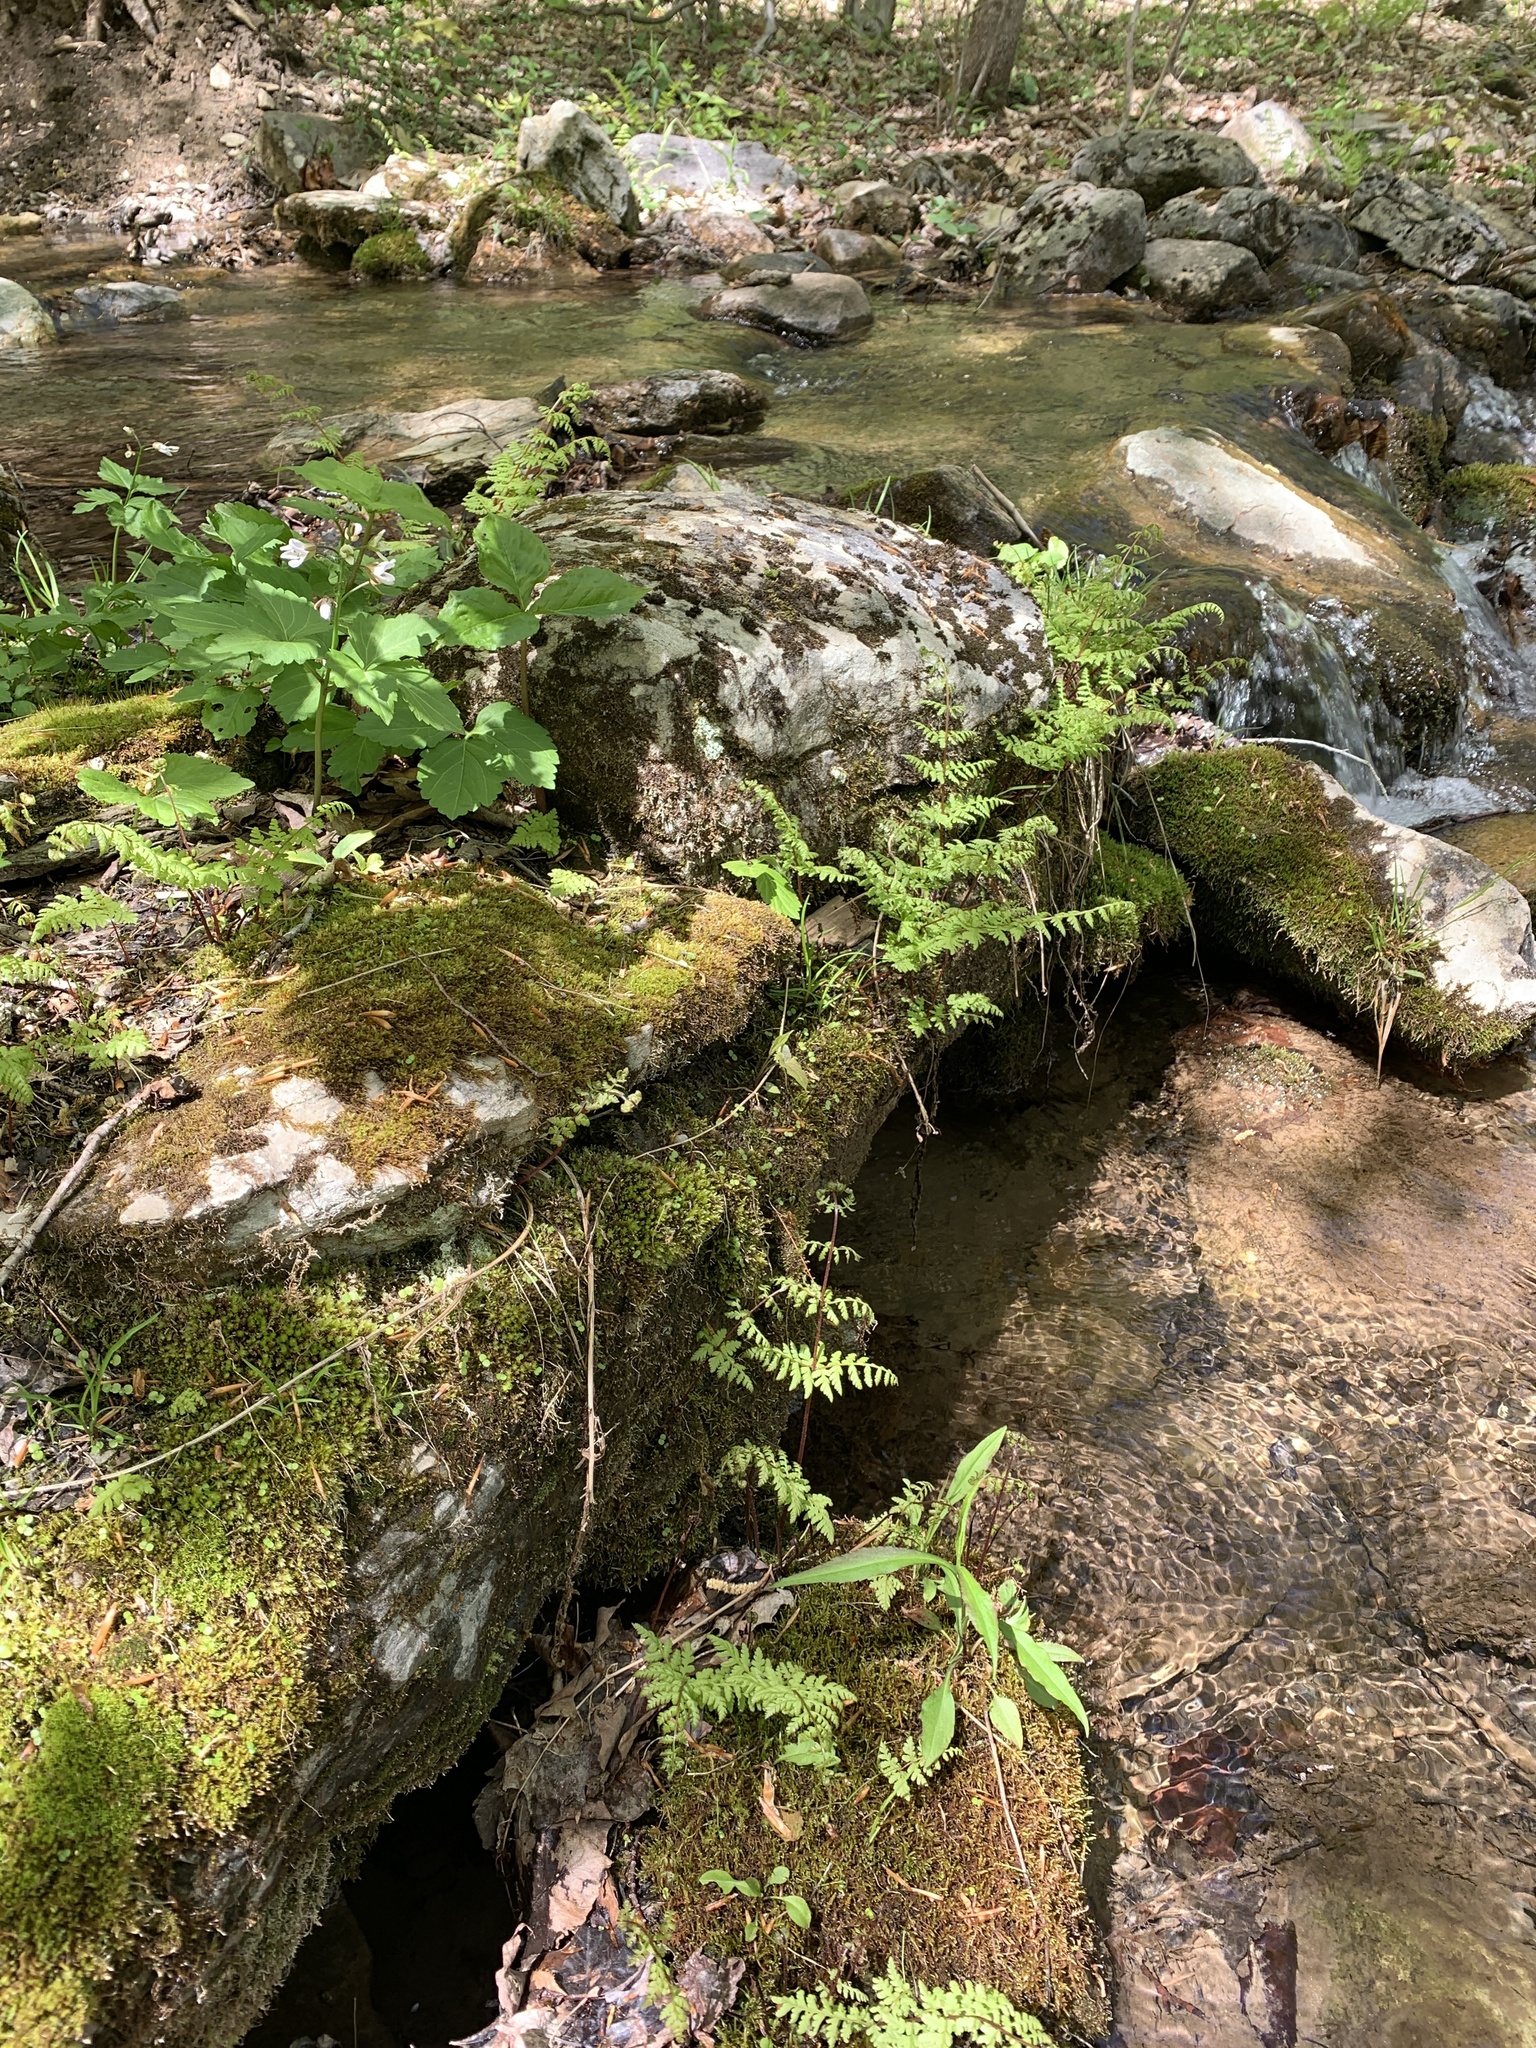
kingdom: Plantae
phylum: Tracheophyta
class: Polypodiopsida
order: Polypodiales
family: Cystopteridaceae
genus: Cystopteris
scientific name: Cystopteris bulbifera
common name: Bulblet bladder fern
